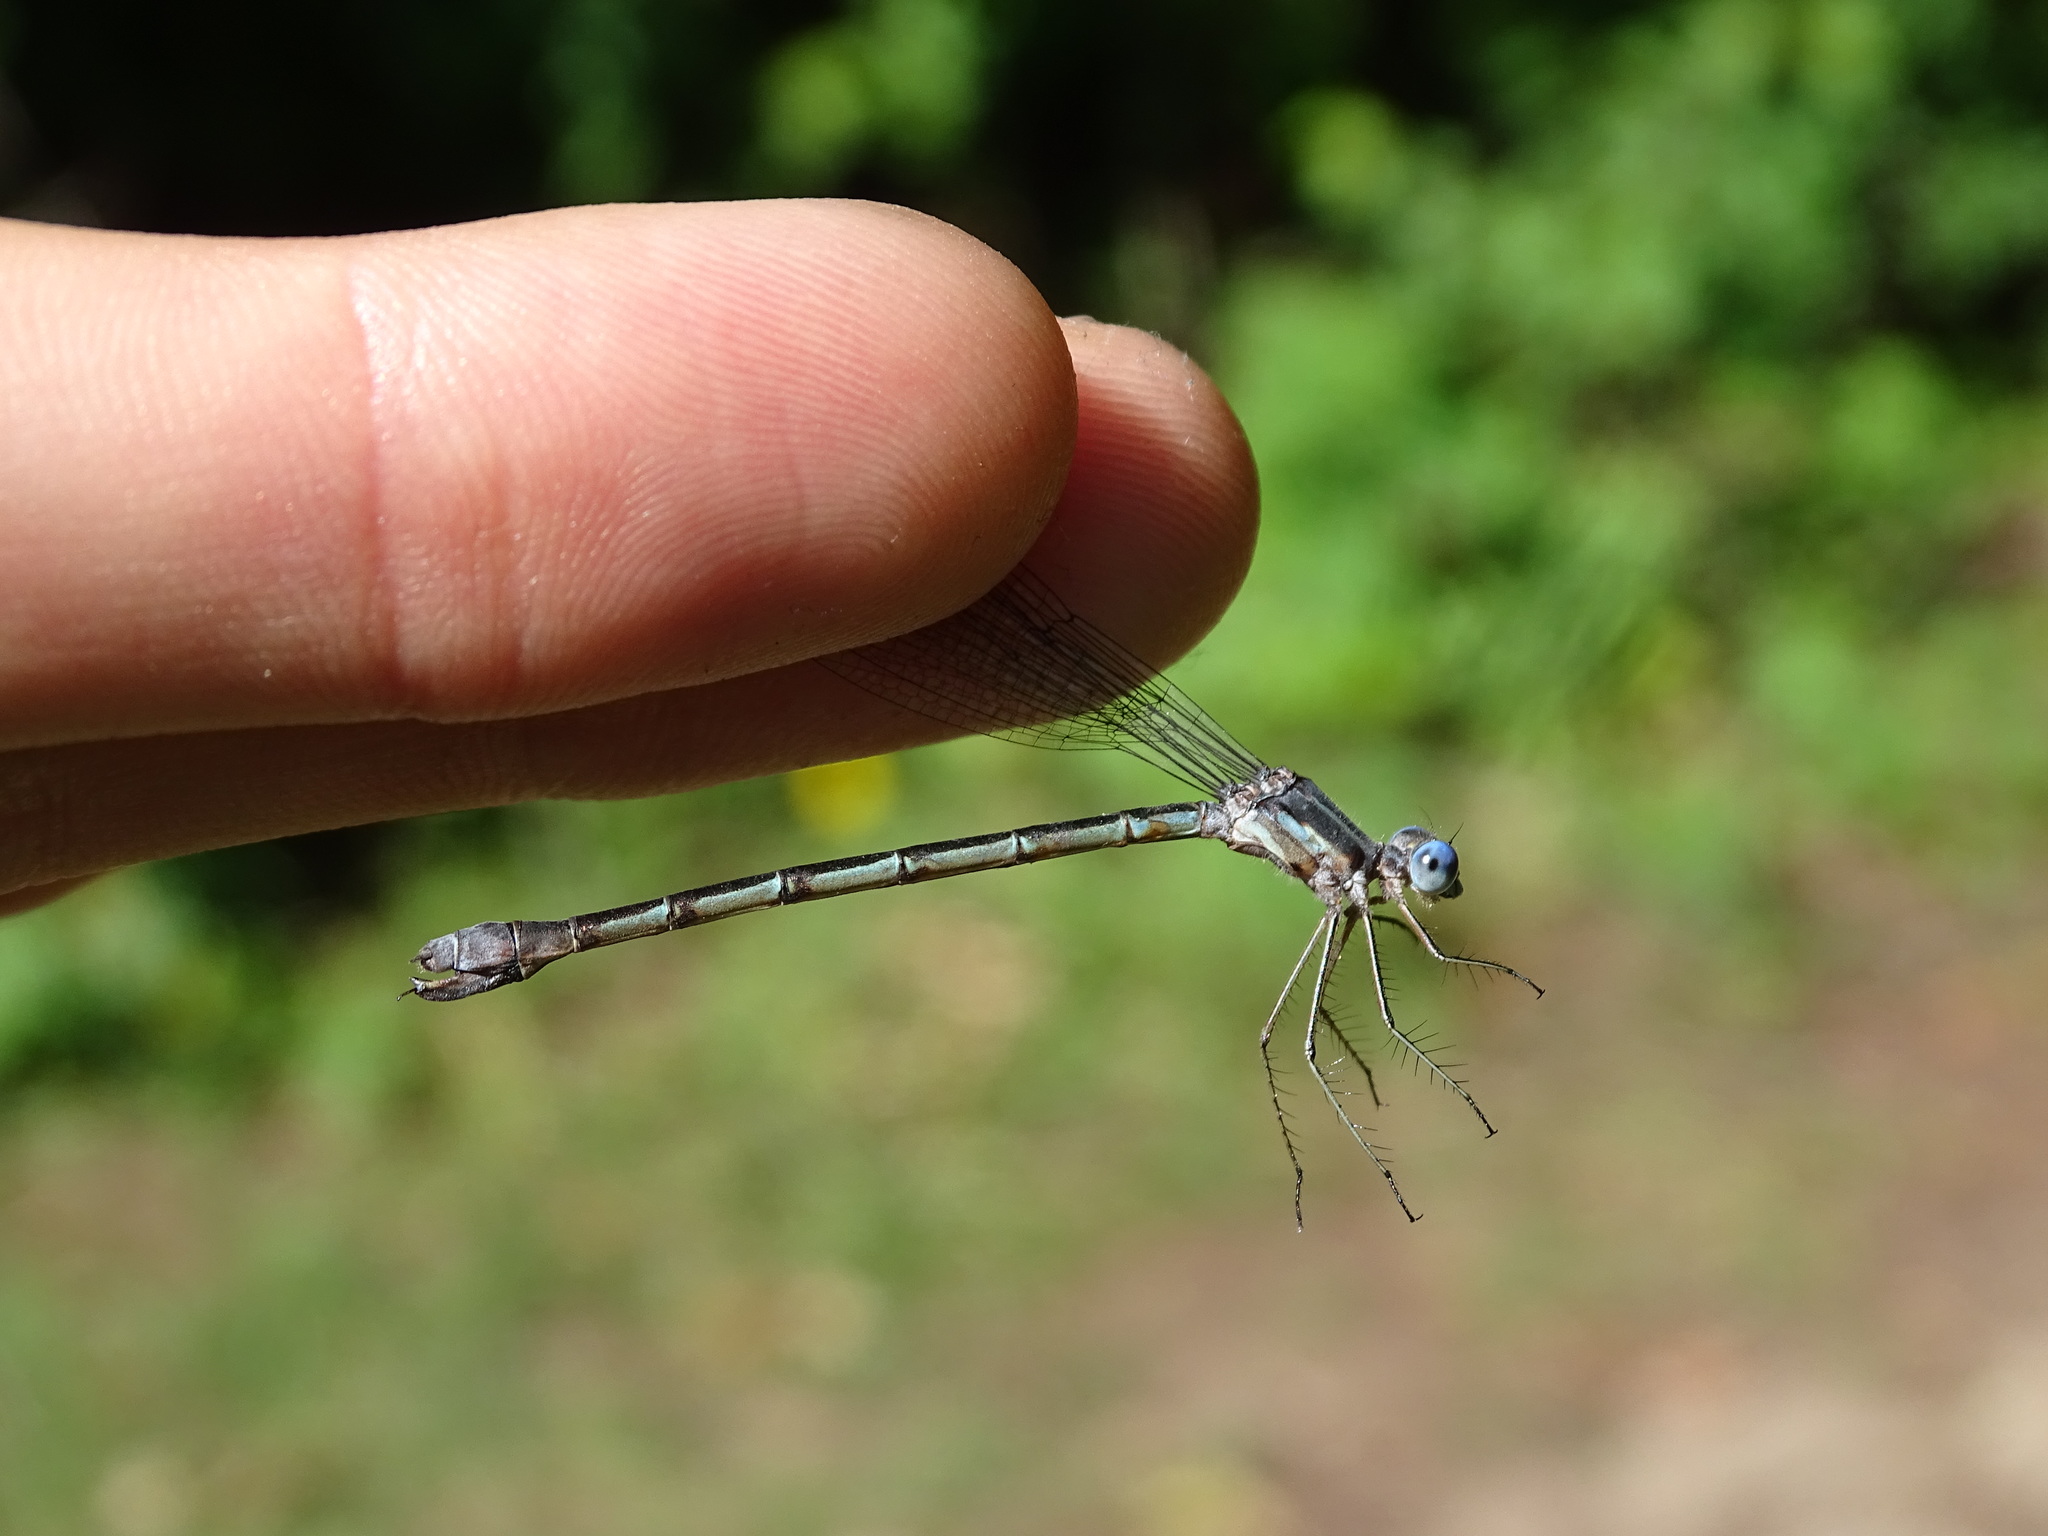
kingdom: Animalia
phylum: Arthropoda
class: Insecta
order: Odonata
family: Lestidae
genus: Lestes
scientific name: Lestes forcipatus
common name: Sweetflag spreadwing
